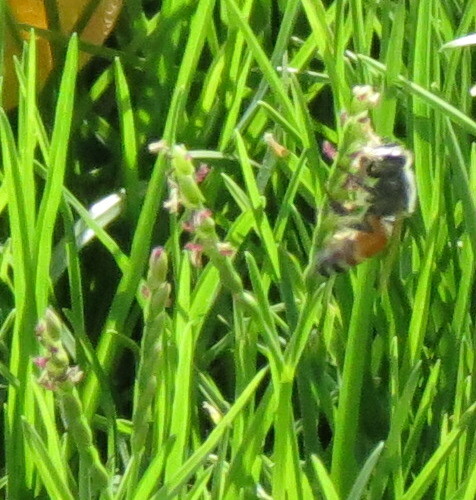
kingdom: Animalia
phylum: Arthropoda
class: Insecta
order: Hymenoptera
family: Apidae
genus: Apis
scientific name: Apis florea
